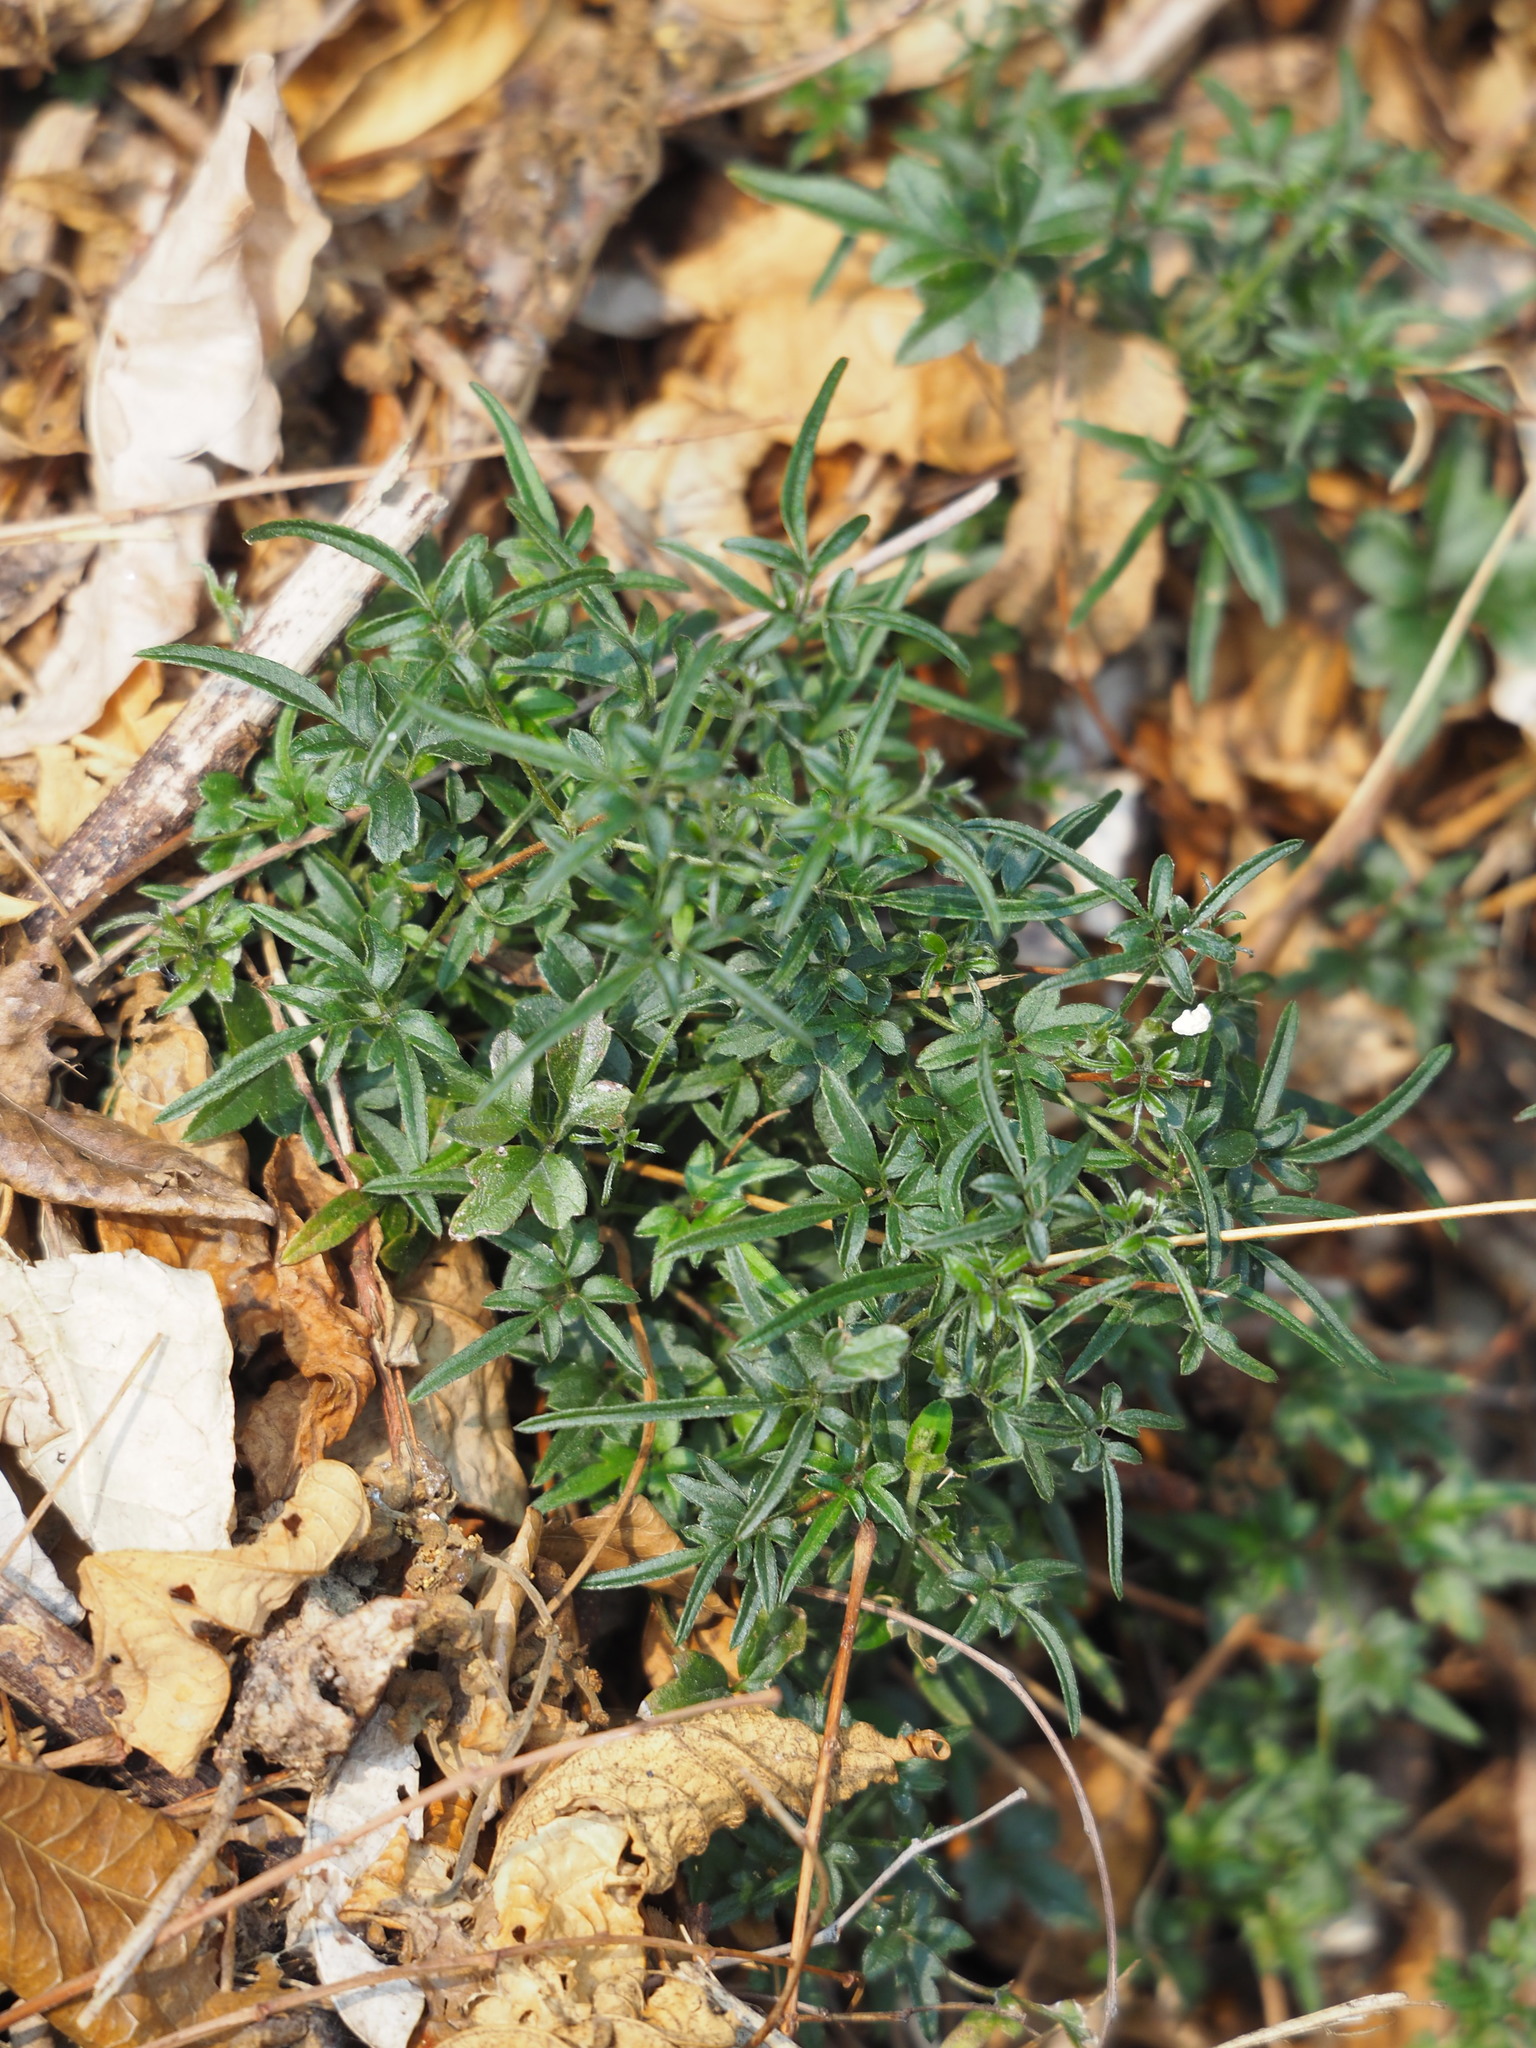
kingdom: Plantae
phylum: Tracheophyta
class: Magnoliopsida
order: Ranunculales
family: Ranunculaceae
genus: Clematis
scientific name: Clematis formosana
